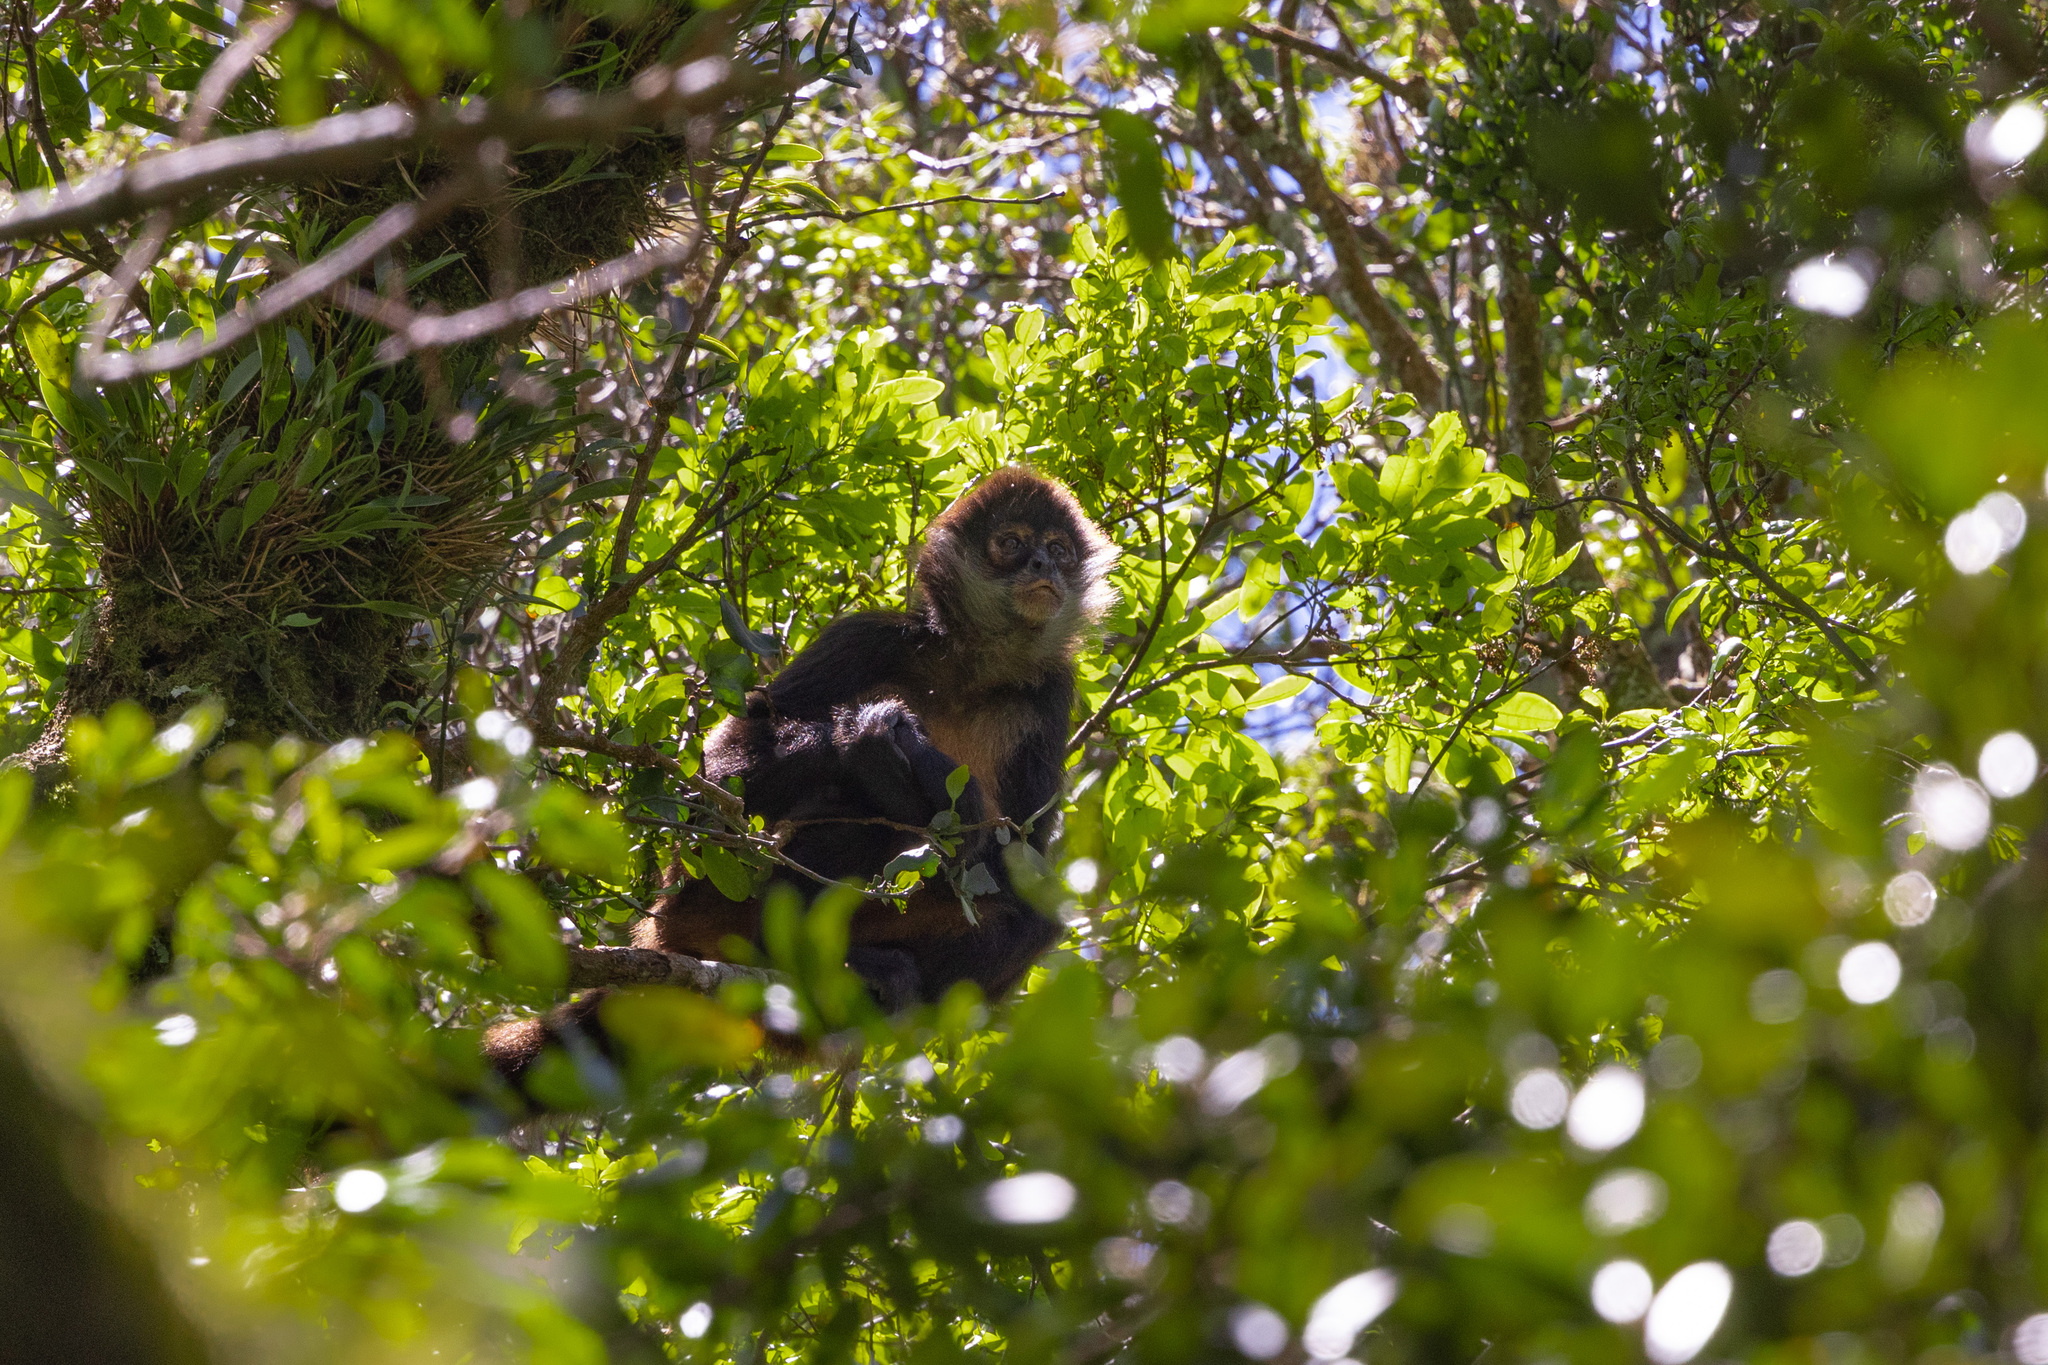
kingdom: Animalia
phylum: Chordata
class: Mammalia
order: Primates
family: Atelidae
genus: Ateles
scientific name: Ateles geoffroyi
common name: Black-handed spider monkey
